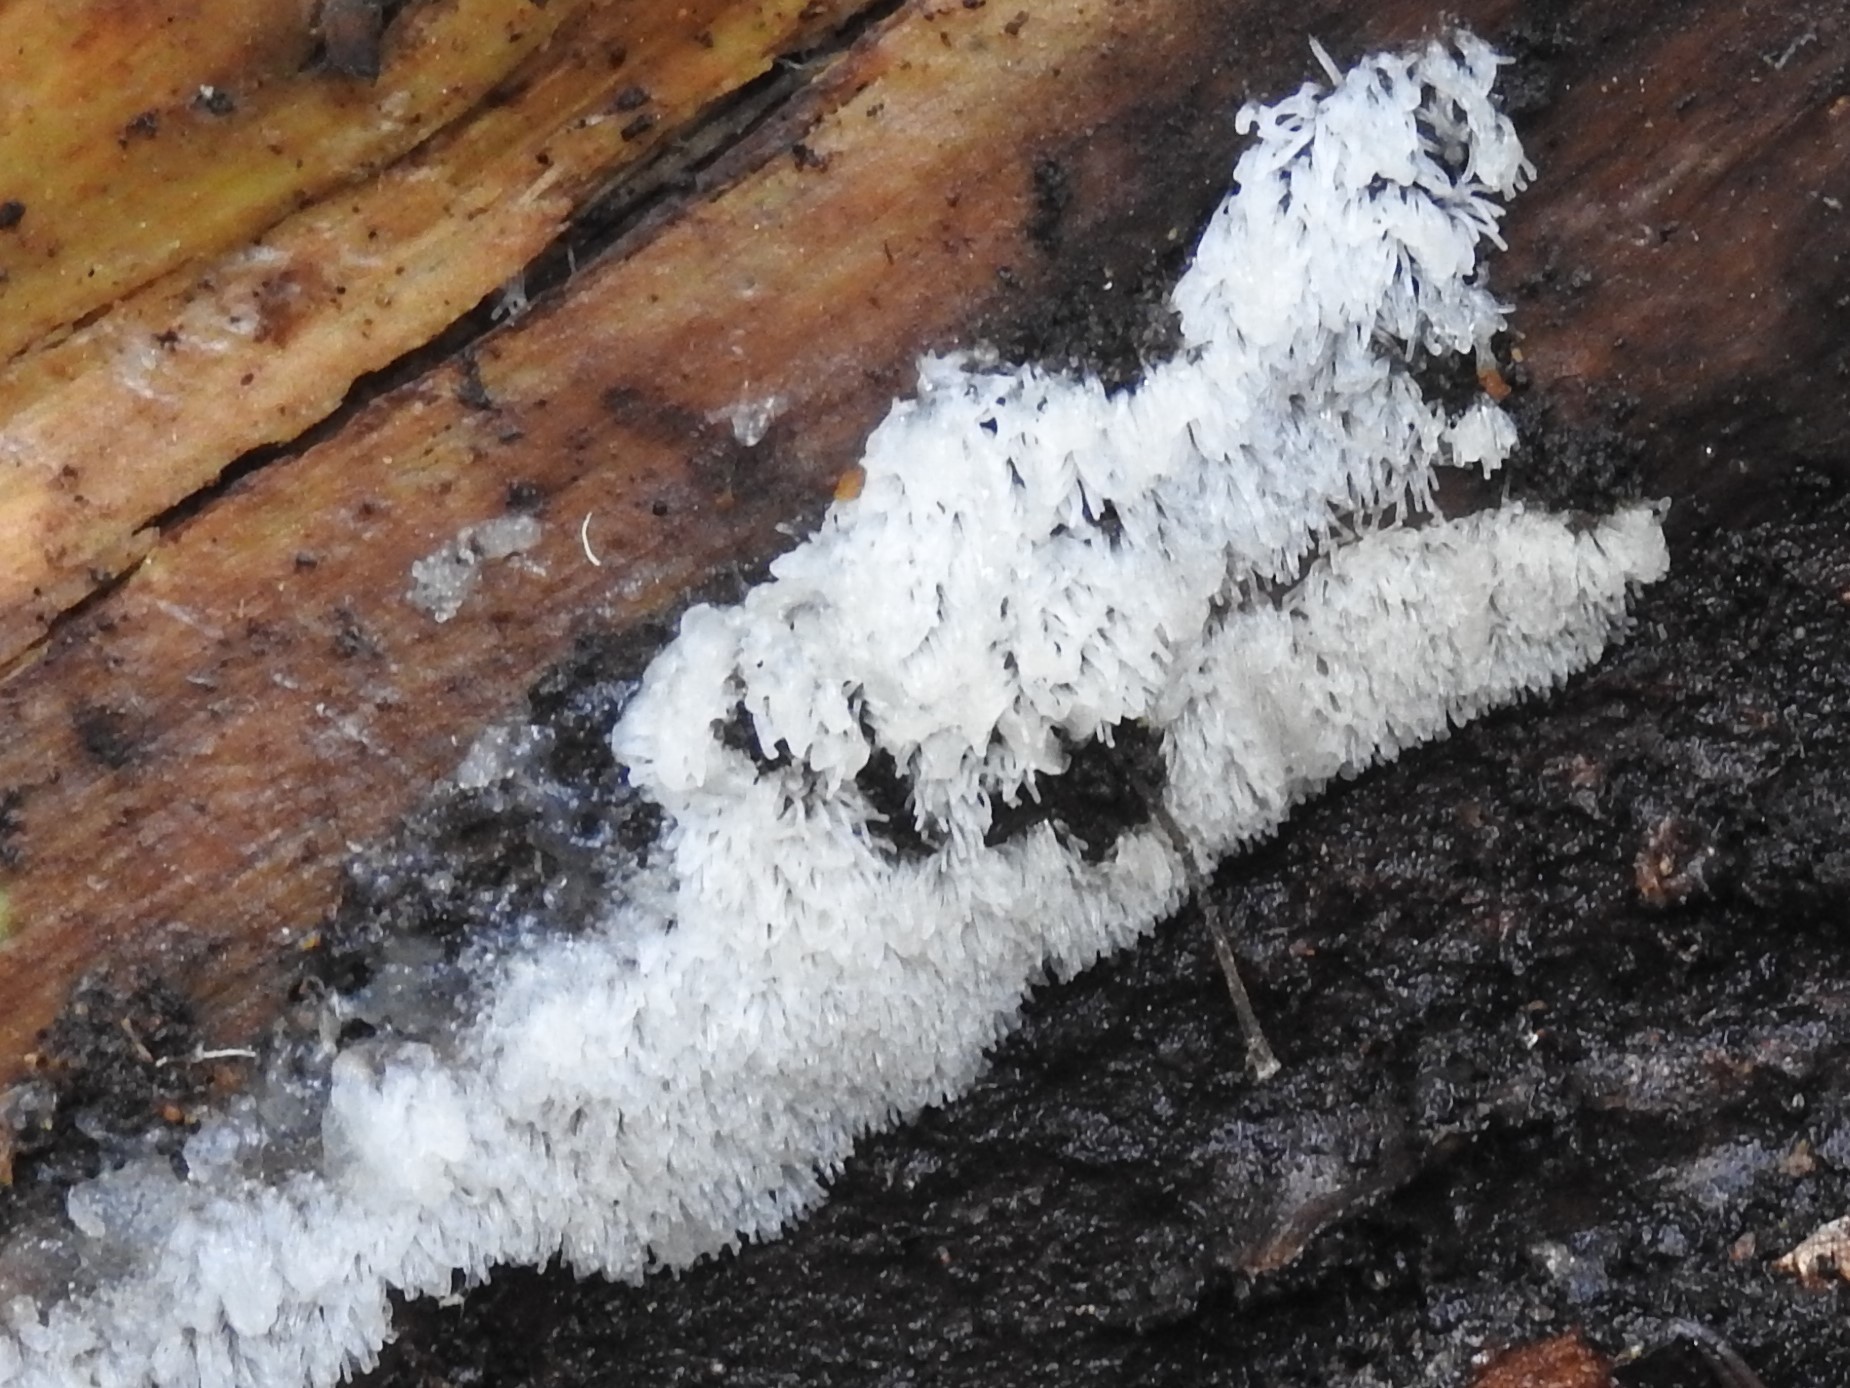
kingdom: Protozoa
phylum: Mycetozoa
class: Protosteliomycetes
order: Ceratiomyxales
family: Ceratiomyxaceae
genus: Ceratiomyxa
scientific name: Ceratiomyxa fruticulosa
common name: Honeycomb coral slime mold
